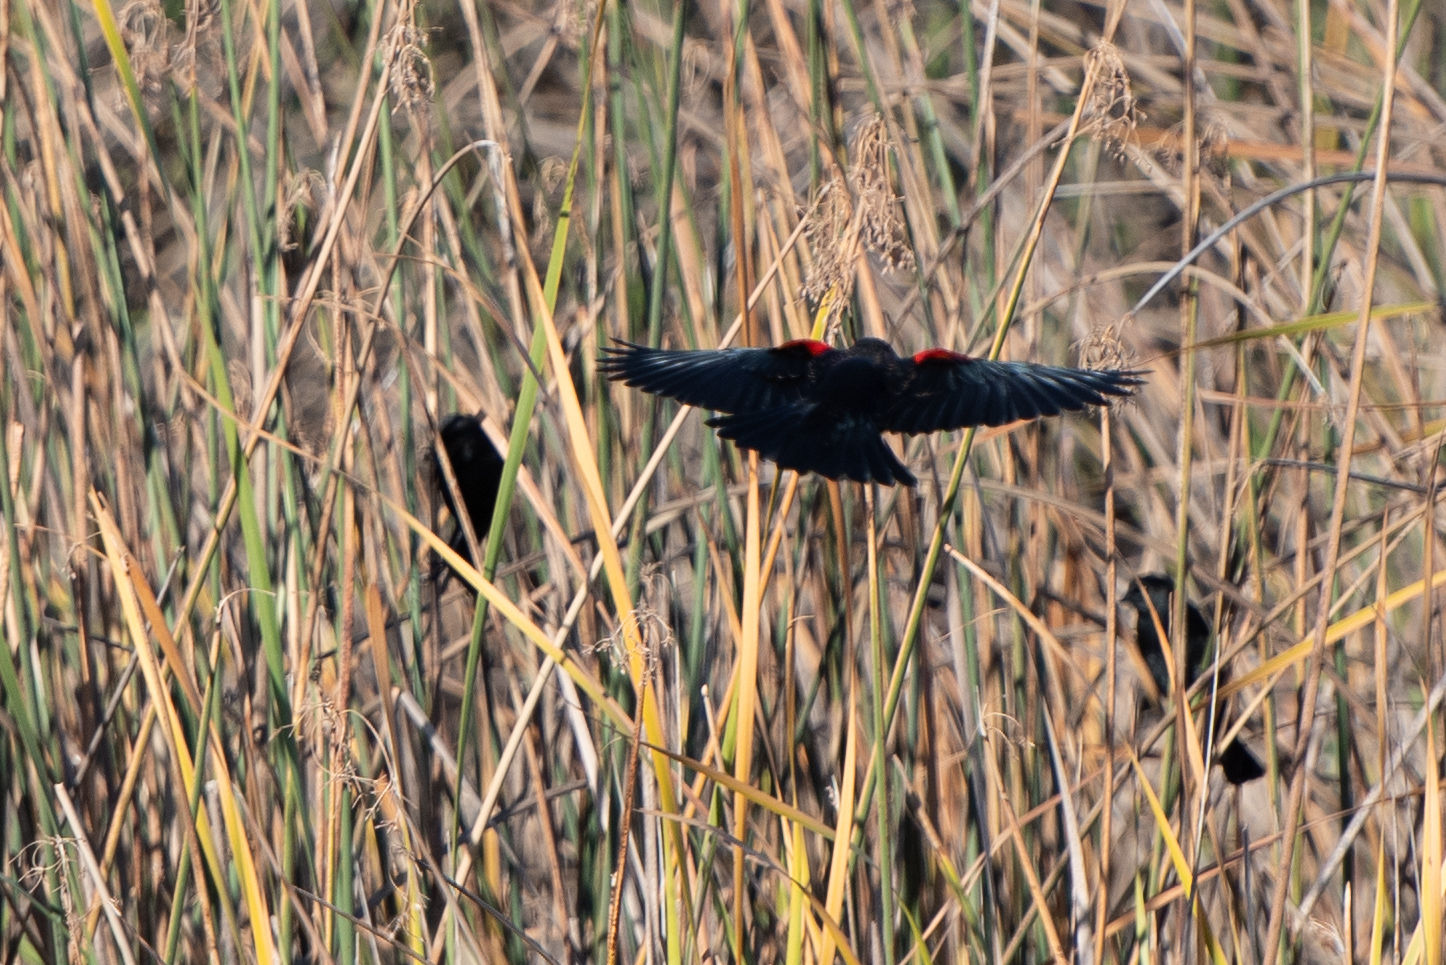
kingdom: Animalia
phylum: Chordata
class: Aves
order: Passeriformes
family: Icteridae
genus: Agelaius
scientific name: Agelaius phoeniceus
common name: Red-winged blackbird
